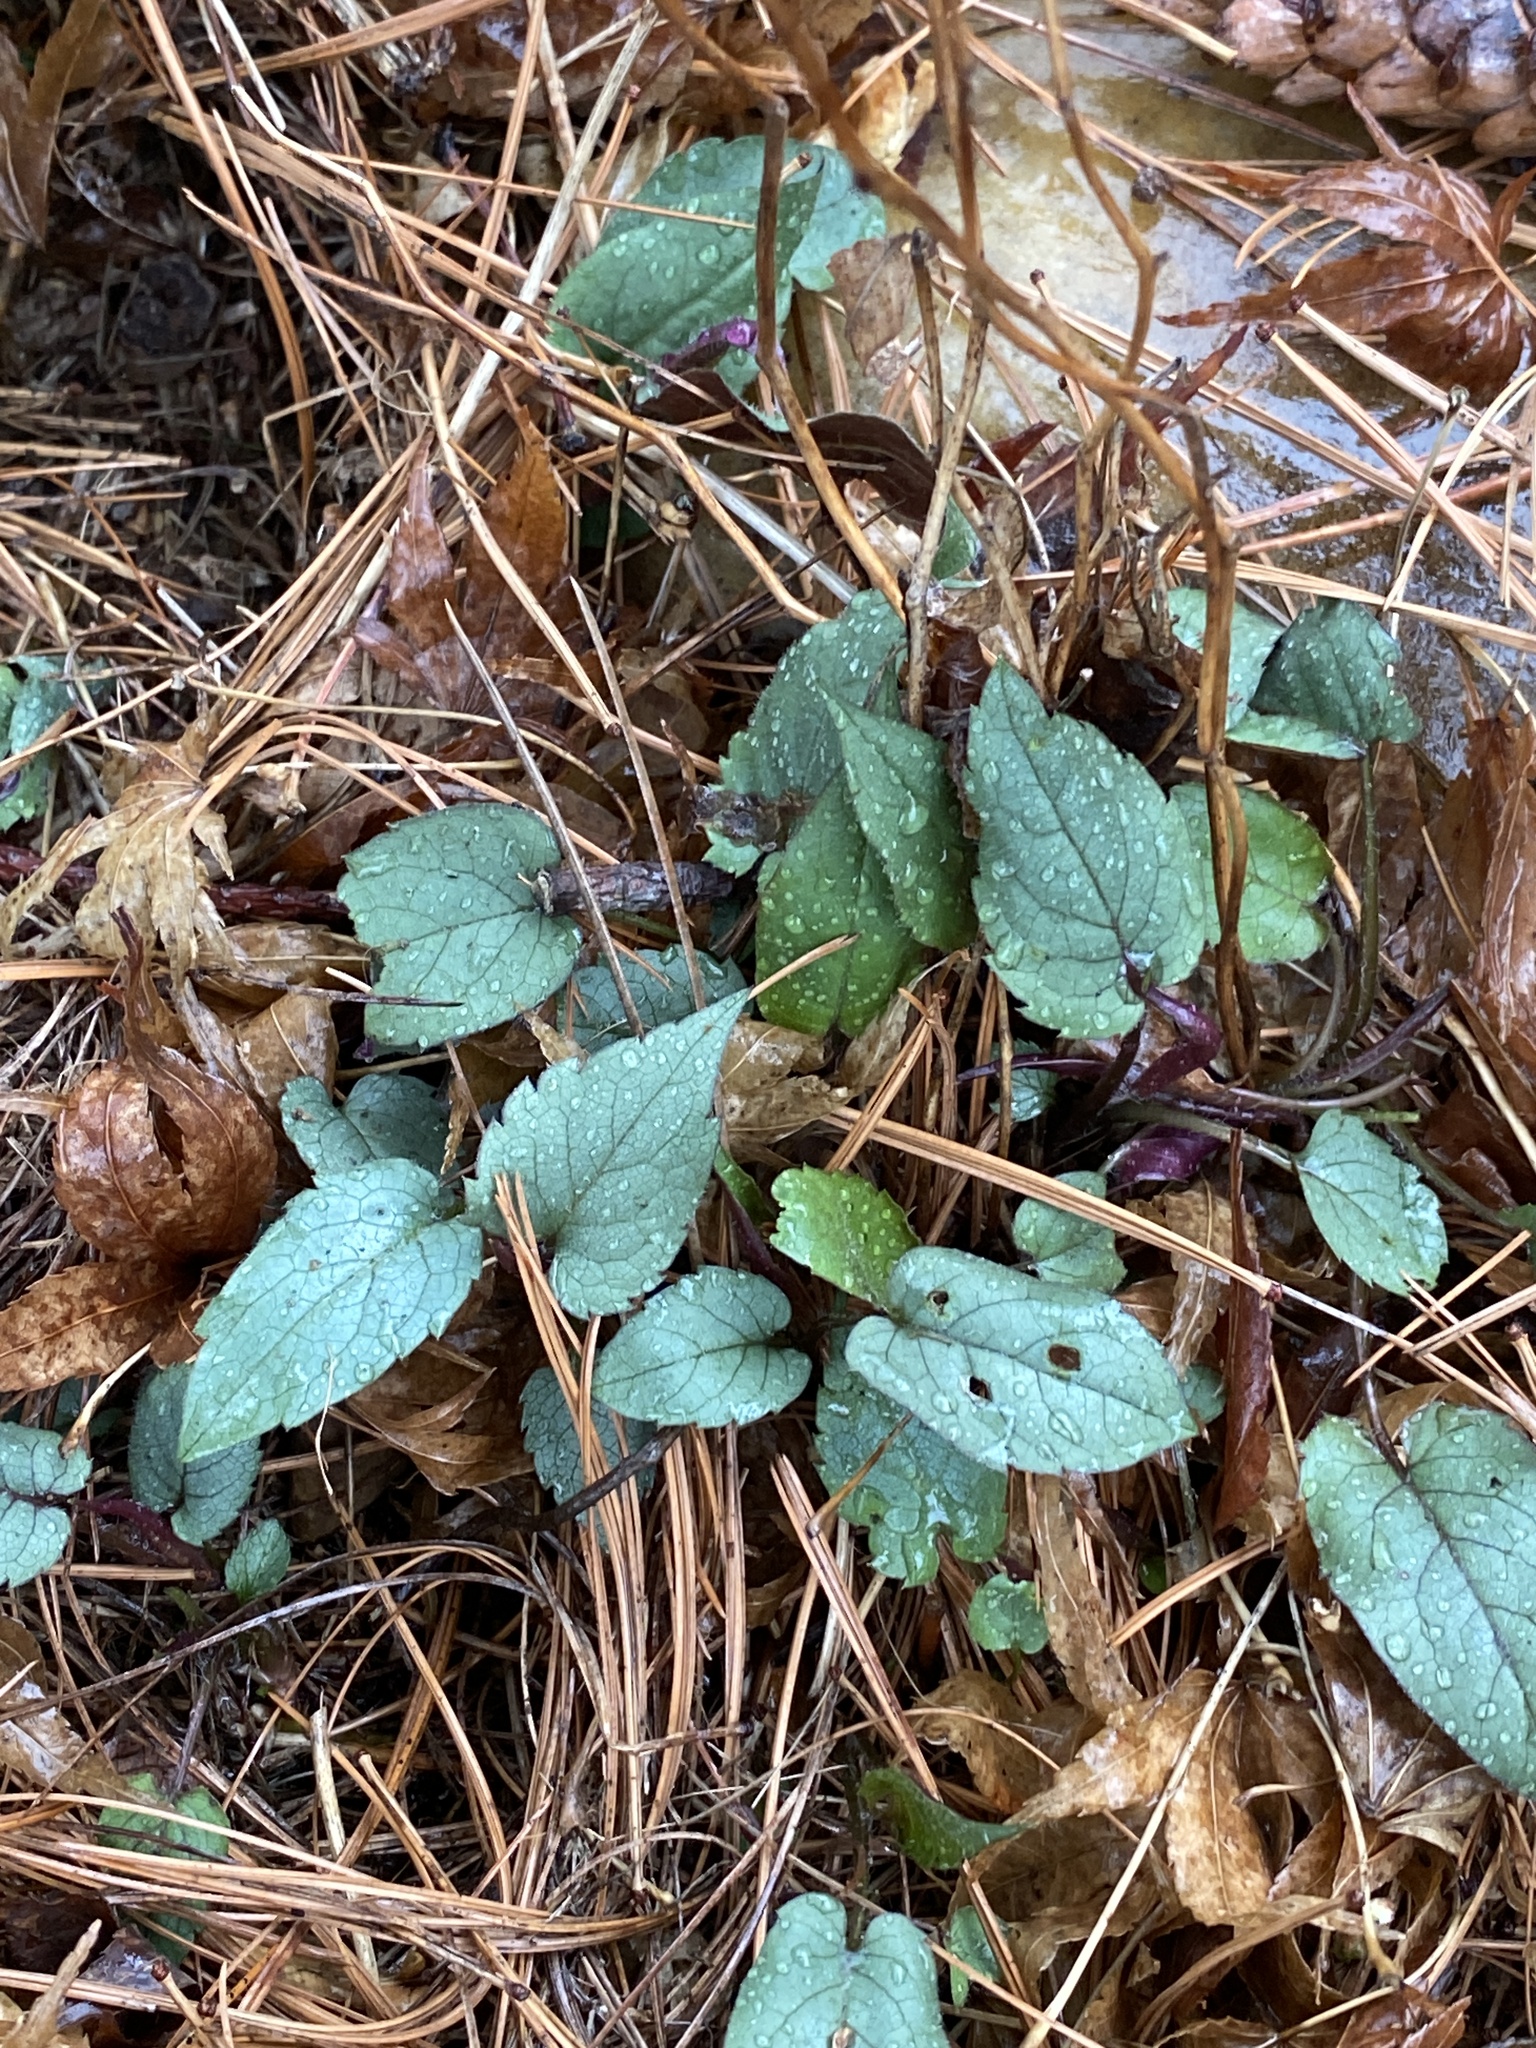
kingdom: Plantae
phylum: Tracheophyta
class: Magnoliopsida
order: Asterales
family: Asteraceae
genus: Eurybia
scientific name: Eurybia divaricata
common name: White wood aster
